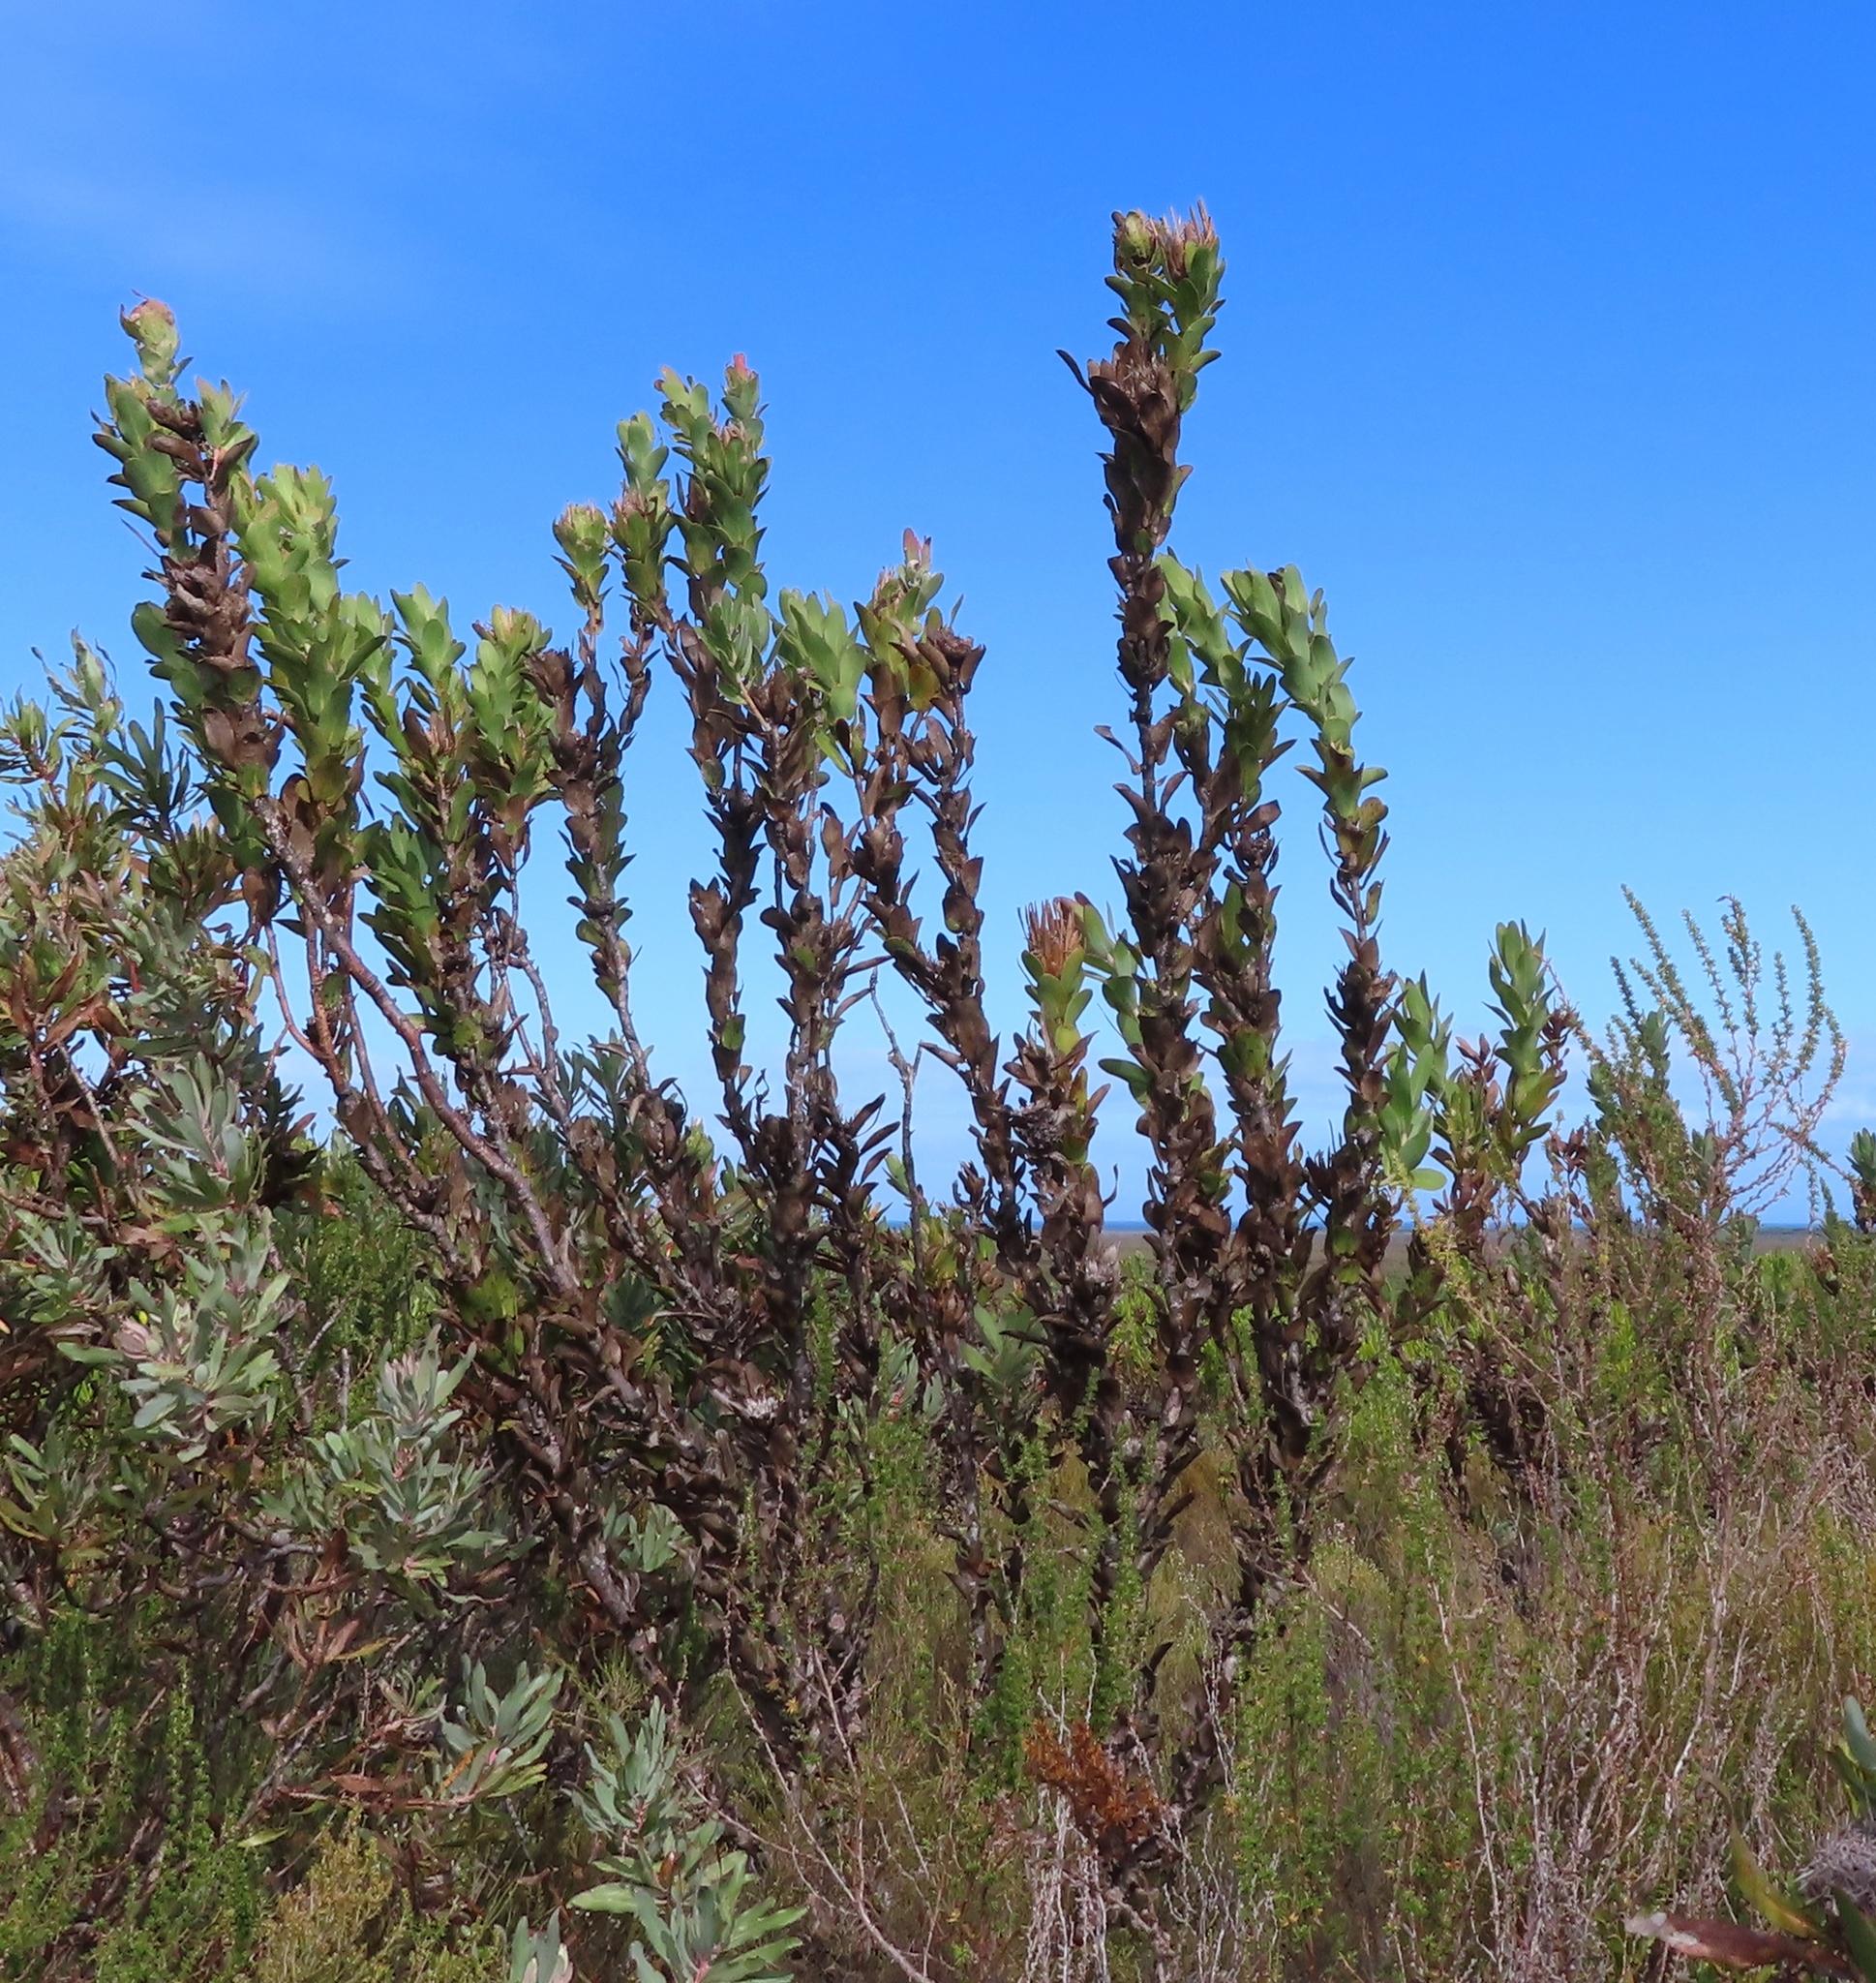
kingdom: Plantae
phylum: Tracheophyta
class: Magnoliopsida
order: Proteales
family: Proteaceae
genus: Protea
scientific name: Protea compacta
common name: Bot river protea
